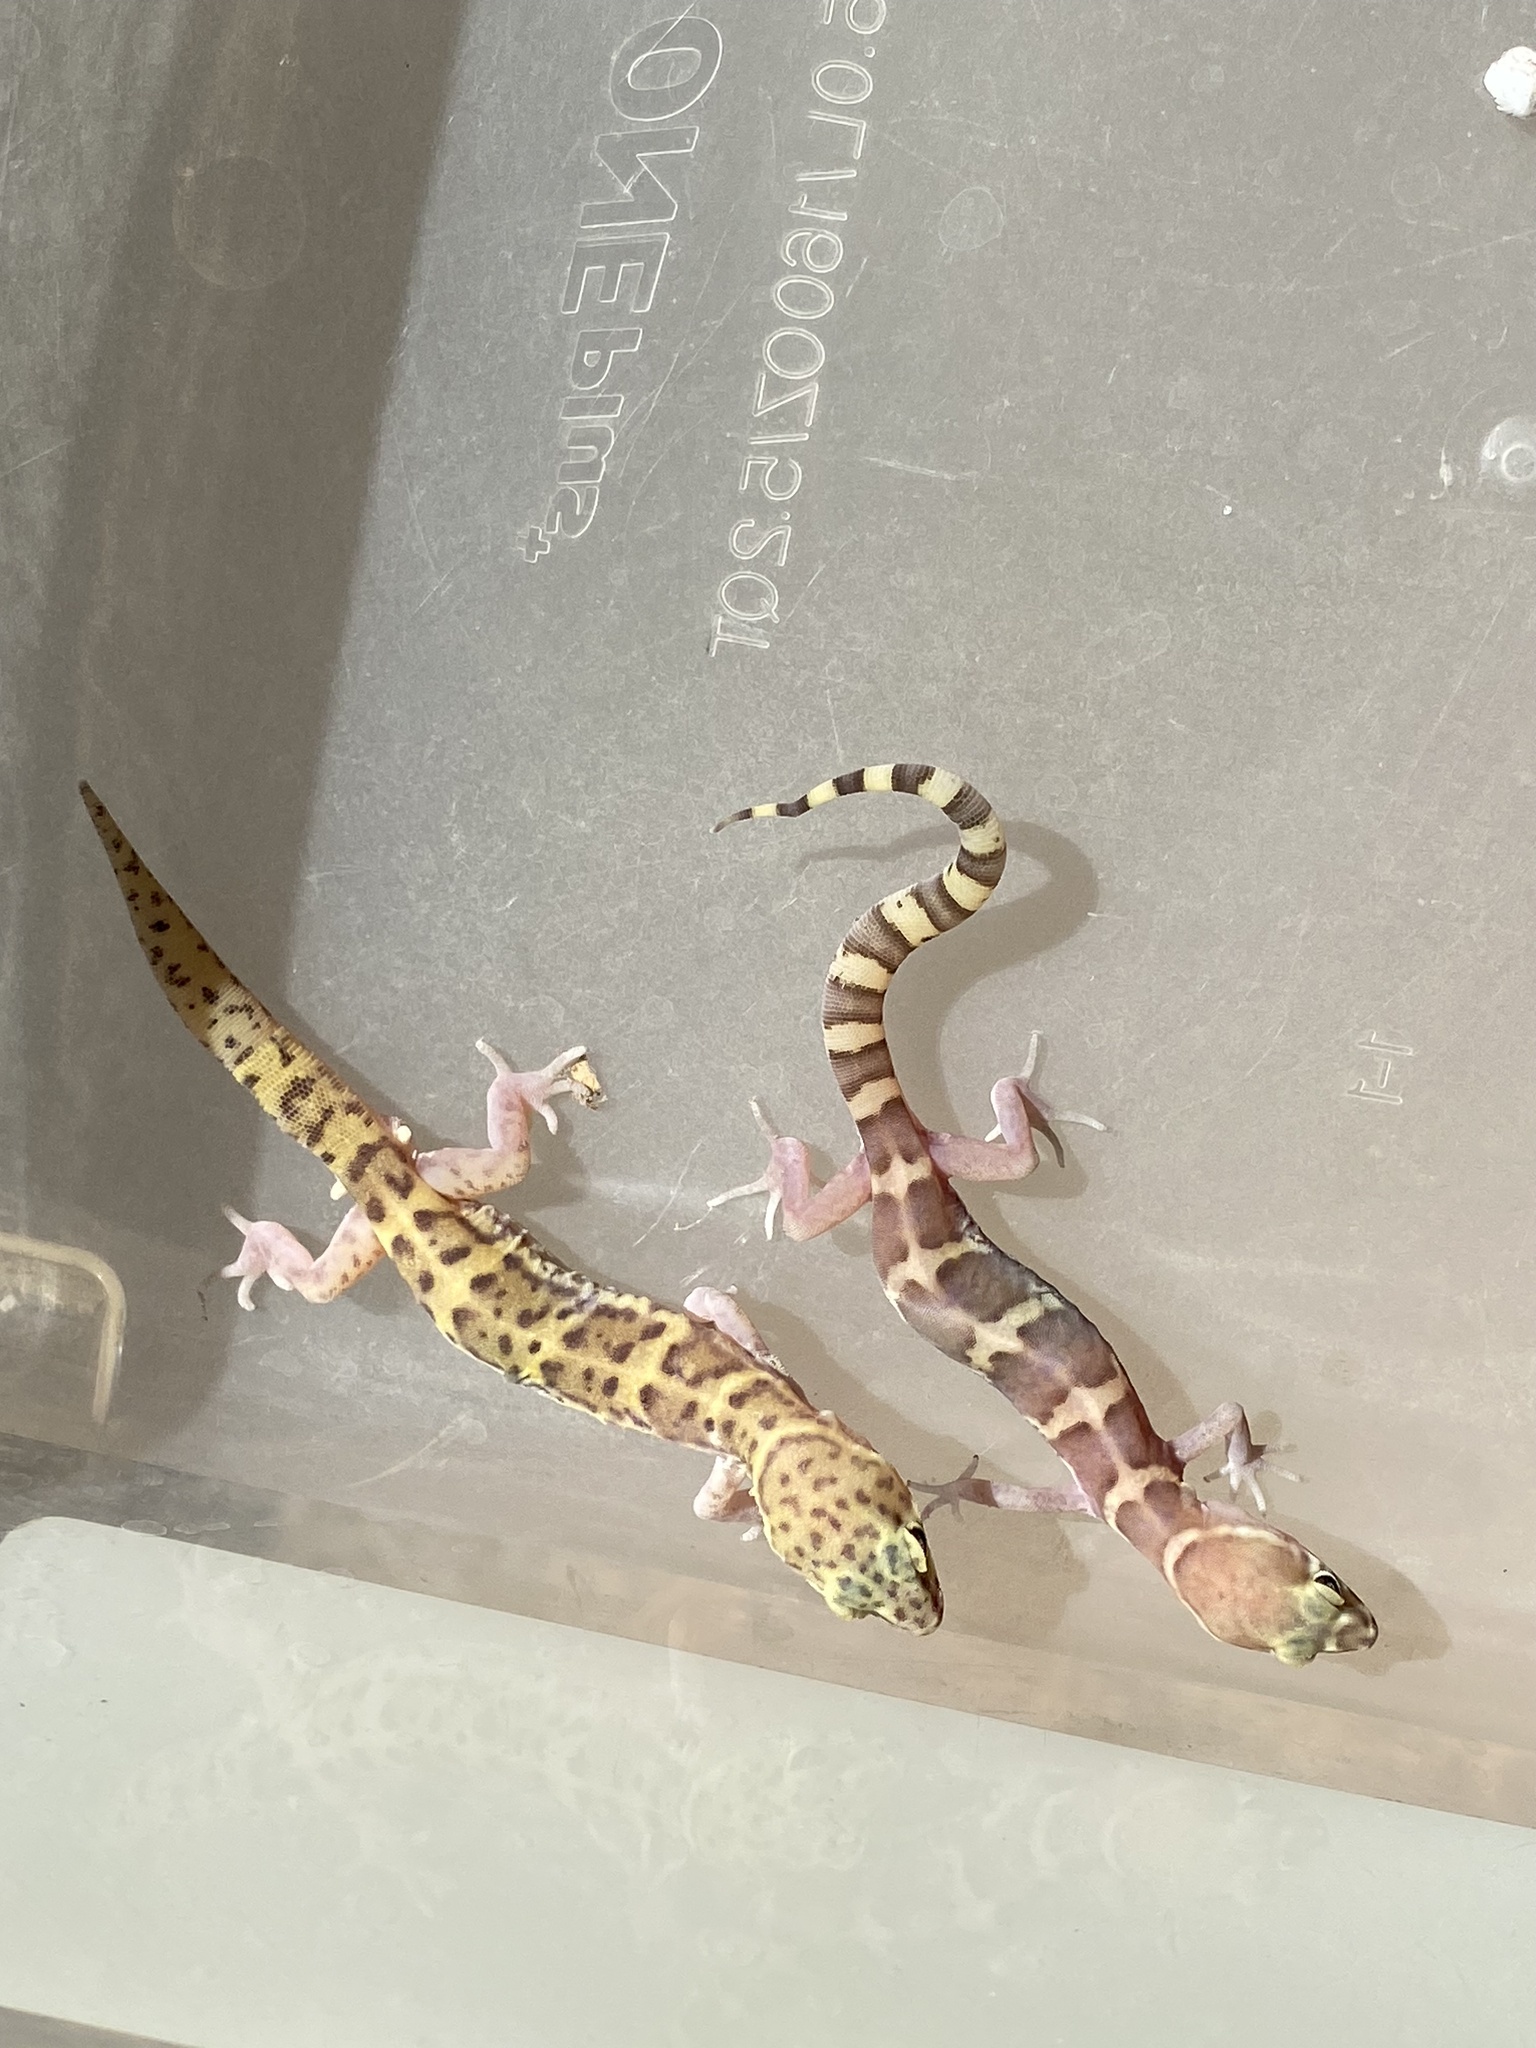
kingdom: Animalia
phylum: Chordata
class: Squamata
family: Eublepharidae
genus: Coleonyx
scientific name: Coleonyx variegatus
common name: Western banded gecko
